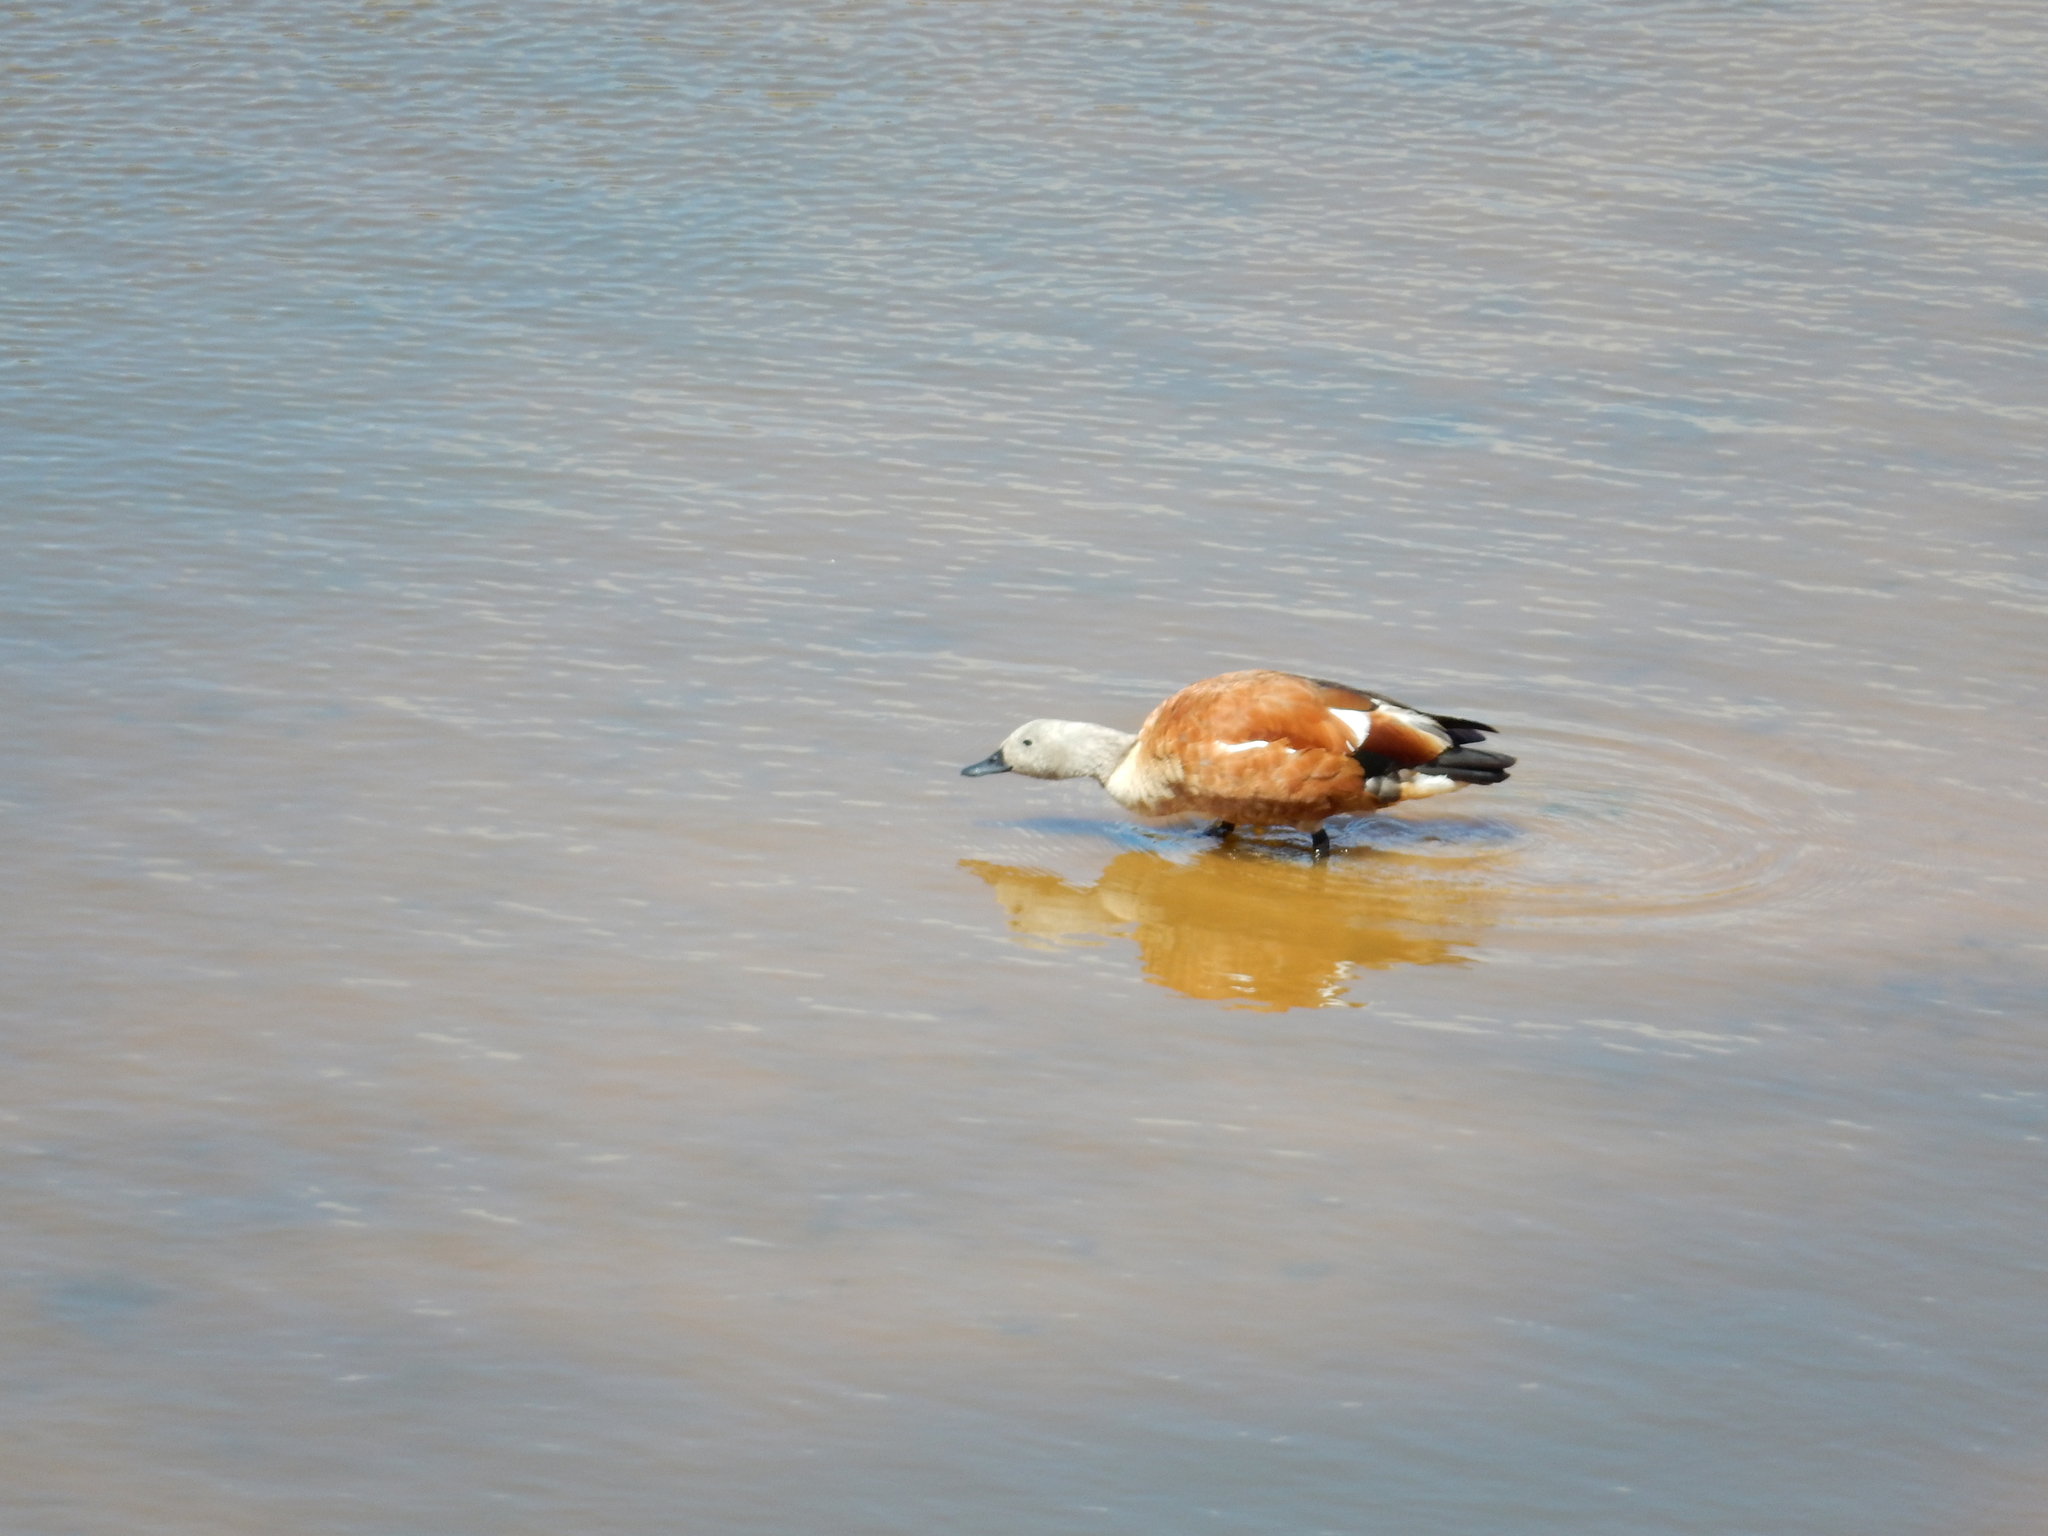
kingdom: Animalia
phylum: Chordata
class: Aves
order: Anseriformes
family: Anatidae
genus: Tadorna
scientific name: Tadorna cana
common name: South african shelduck
